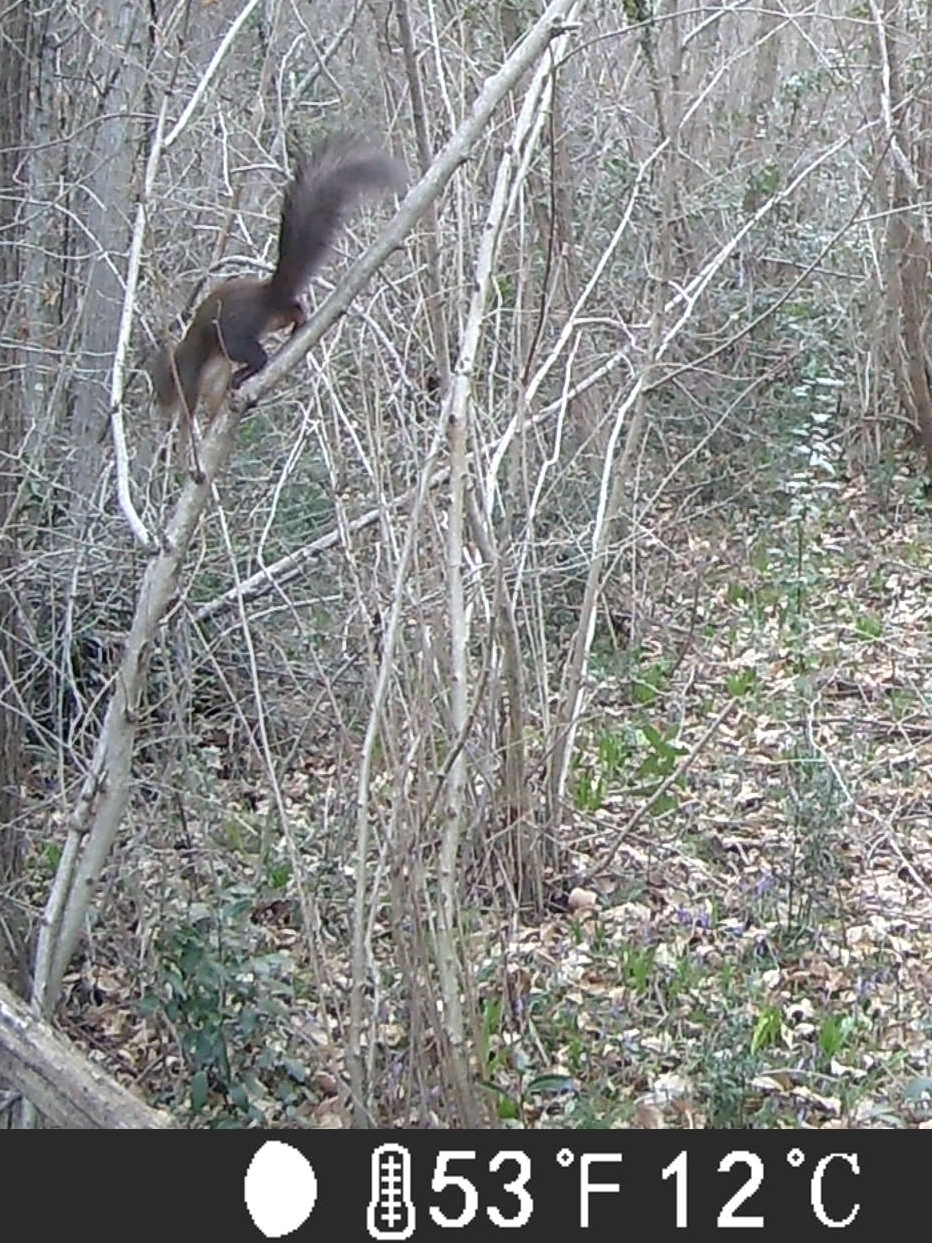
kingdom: Animalia
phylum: Chordata
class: Mammalia
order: Rodentia
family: Sciuridae
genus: Sciurus
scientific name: Sciurus vulgaris
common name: Eurasian red squirrel
